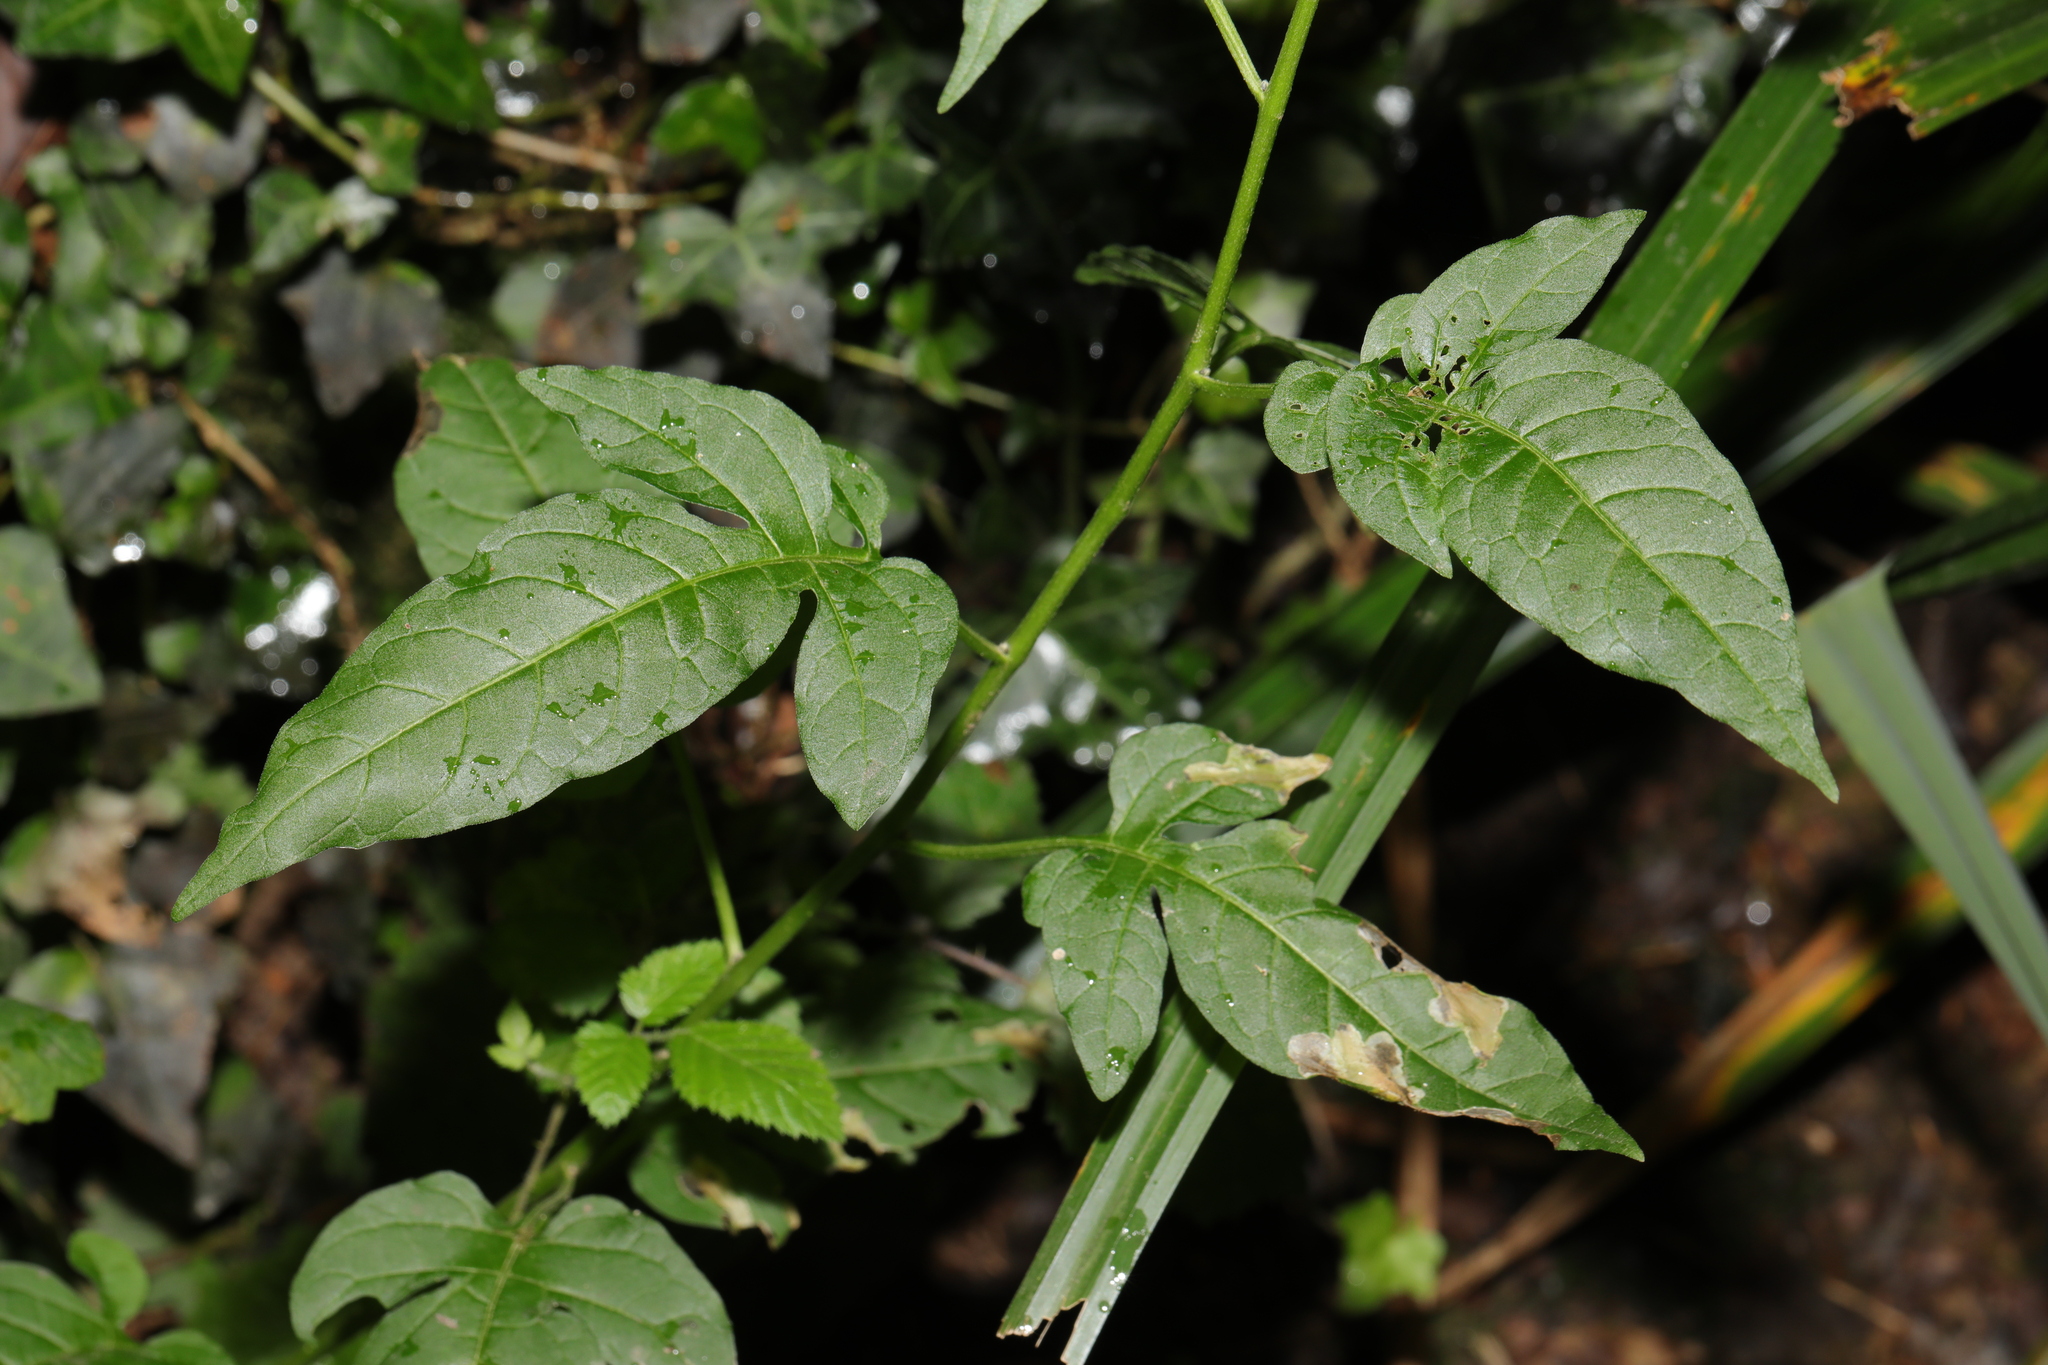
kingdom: Plantae
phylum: Tracheophyta
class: Magnoliopsida
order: Solanales
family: Solanaceae
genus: Solanum
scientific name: Solanum dulcamara
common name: Climbing nightshade
